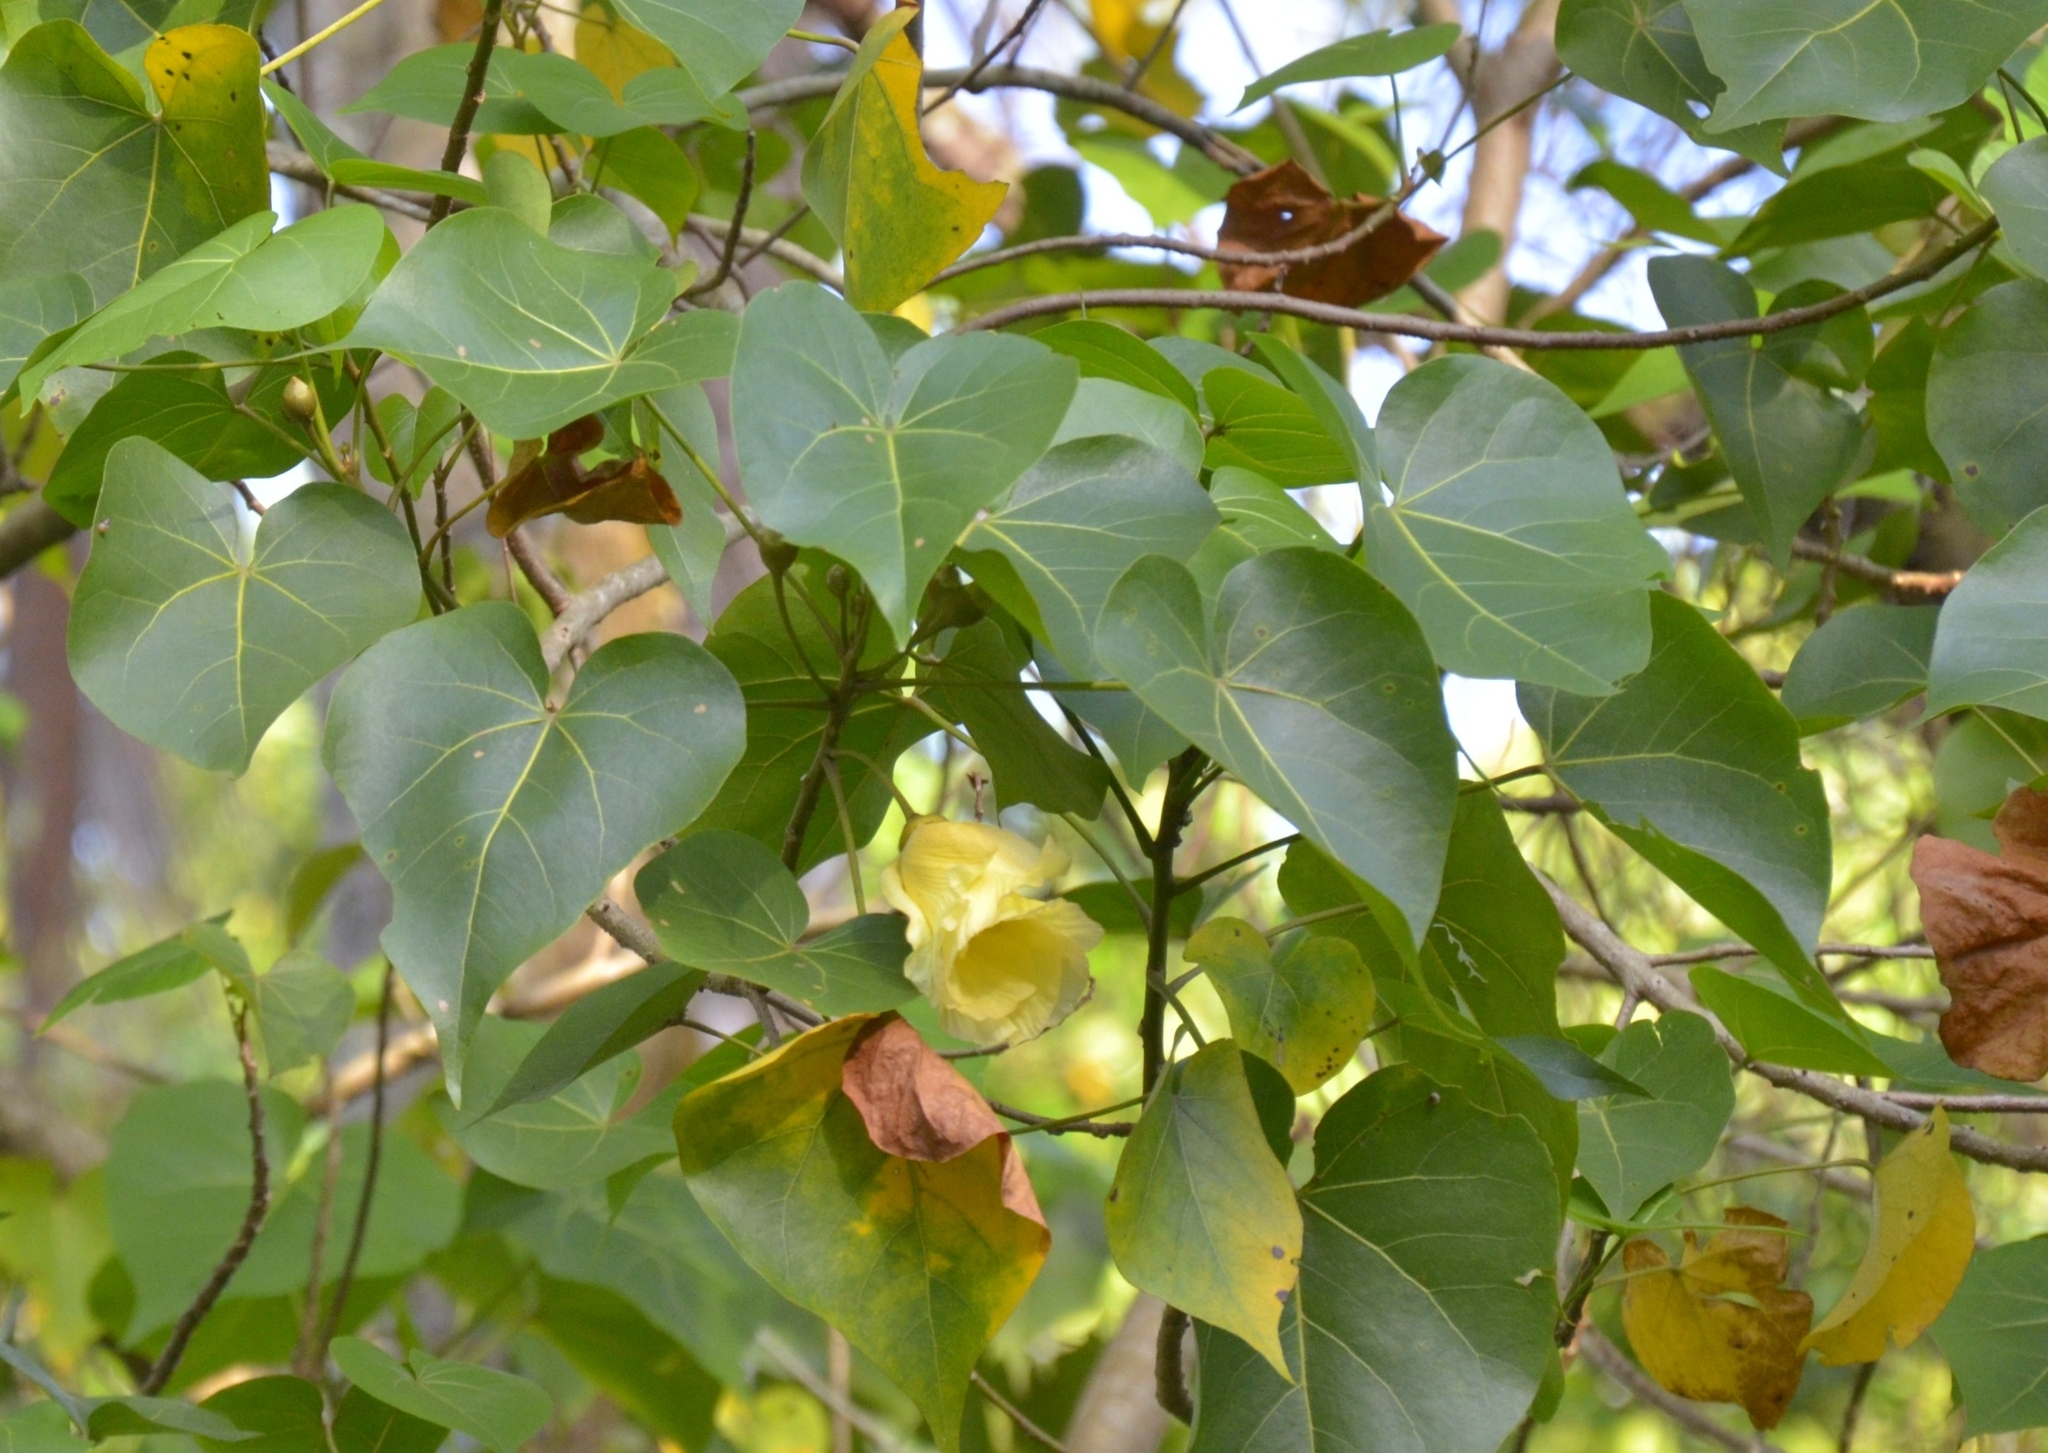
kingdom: Plantae
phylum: Tracheophyta
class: Magnoliopsida
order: Malvales
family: Malvaceae
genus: Thespesia
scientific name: Thespesia populnea
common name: Seaside mahoe
